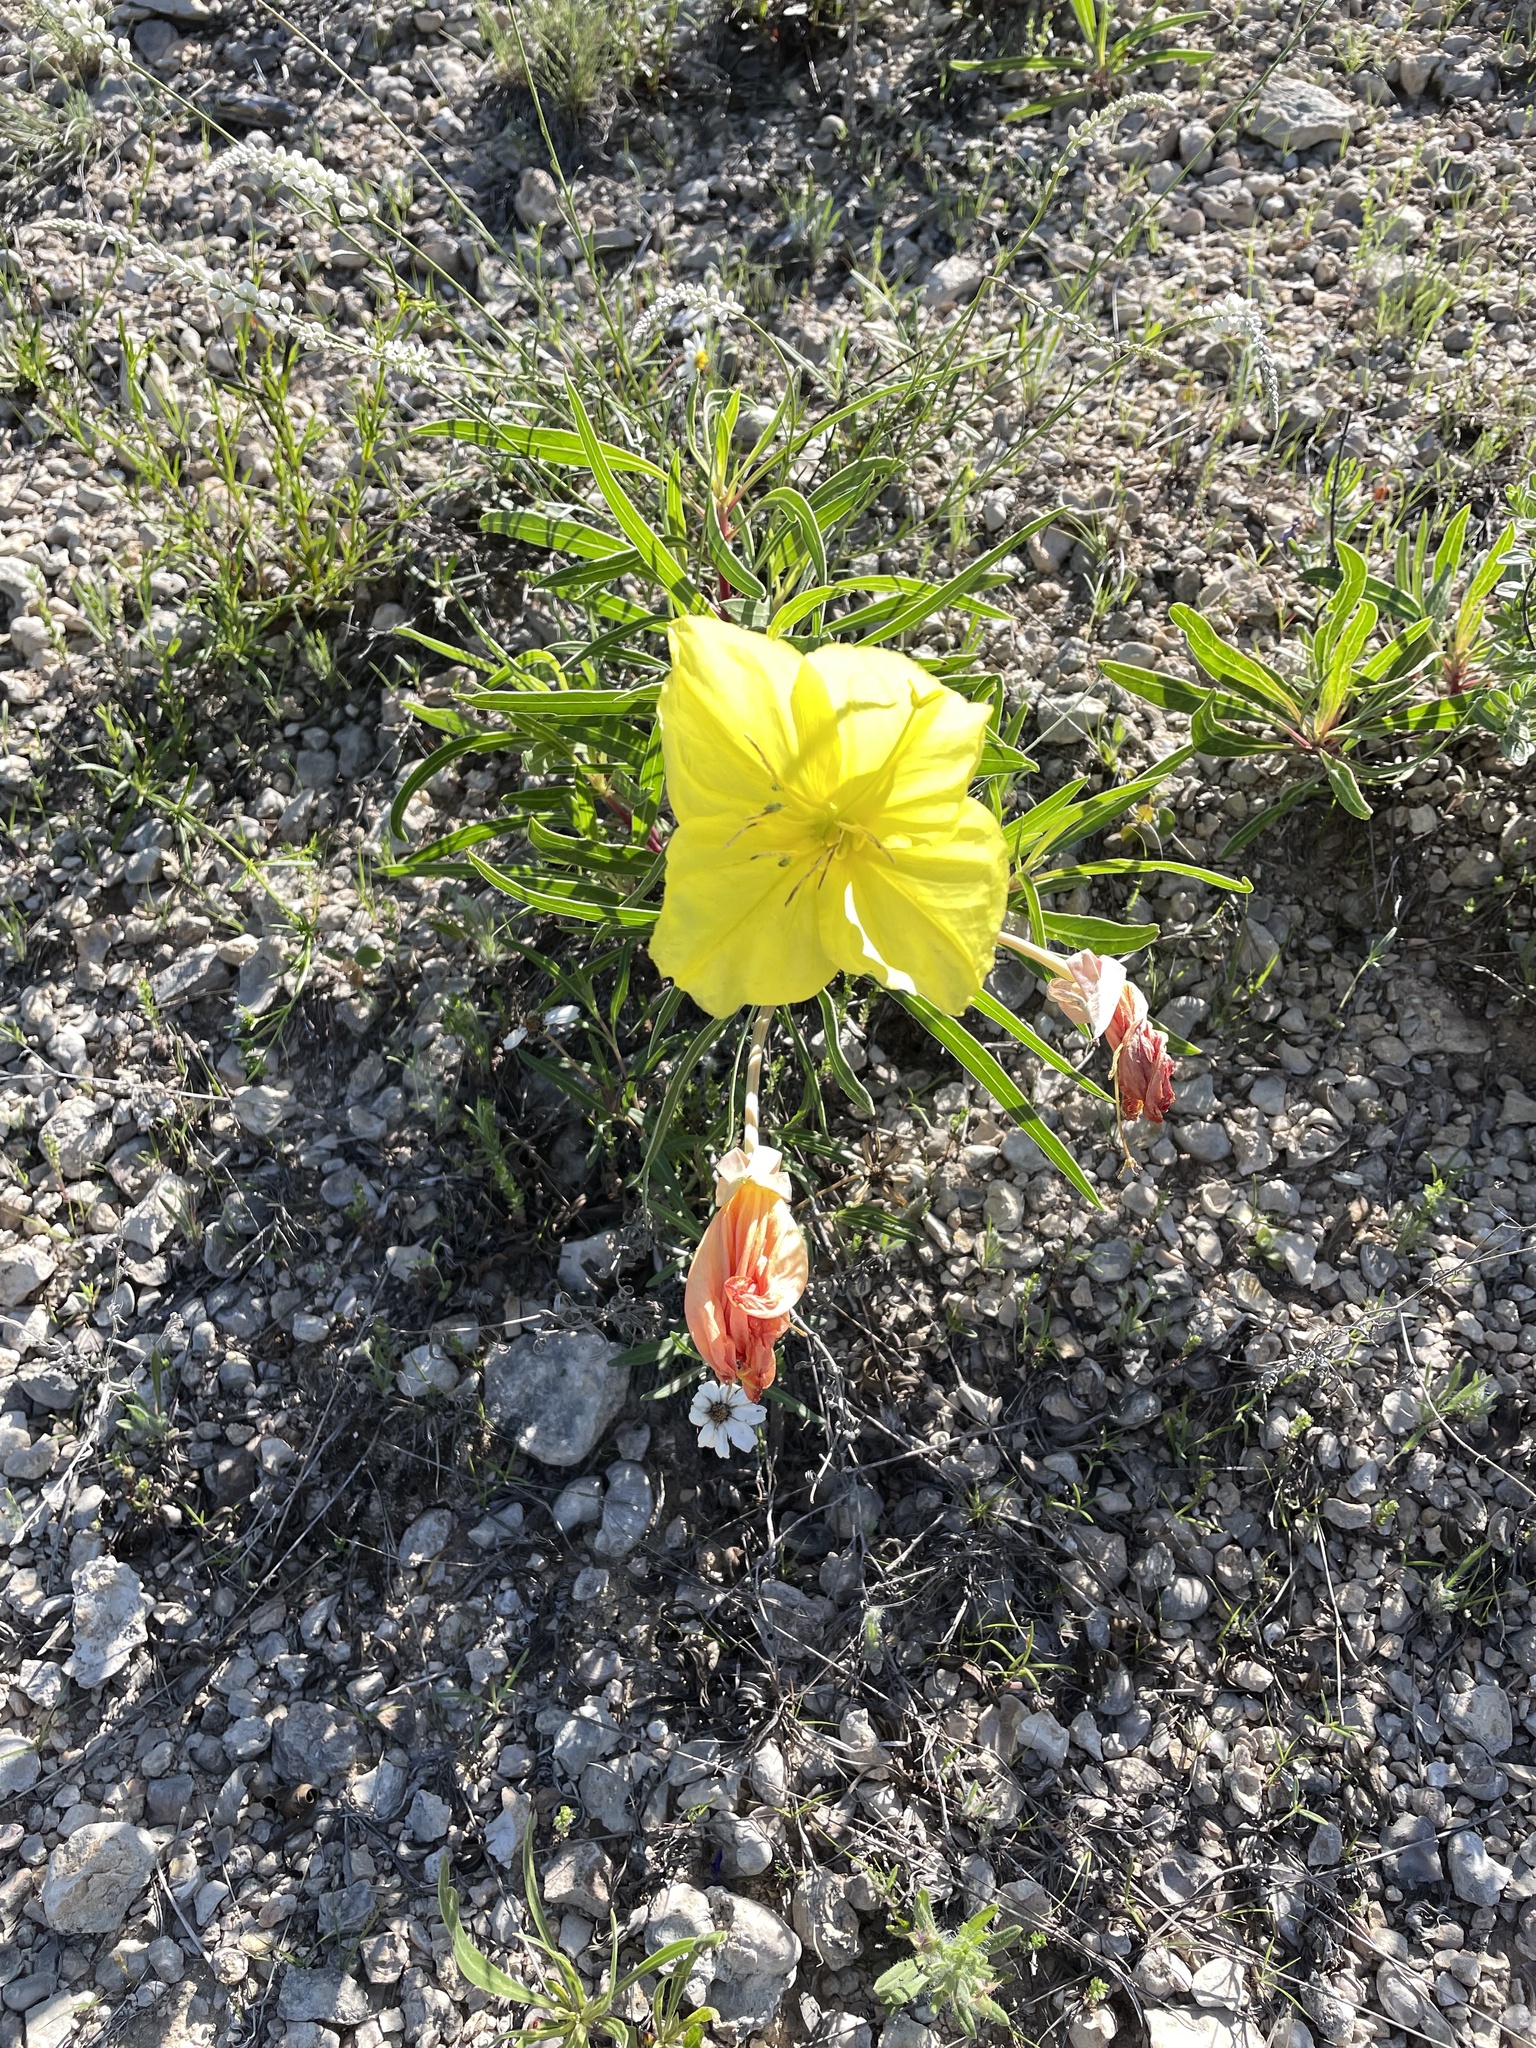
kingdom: Plantae
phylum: Tracheophyta
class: Magnoliopsida
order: Myrtales
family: Onagraceae
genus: Oenothera
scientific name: Oenothera macrocarpa
